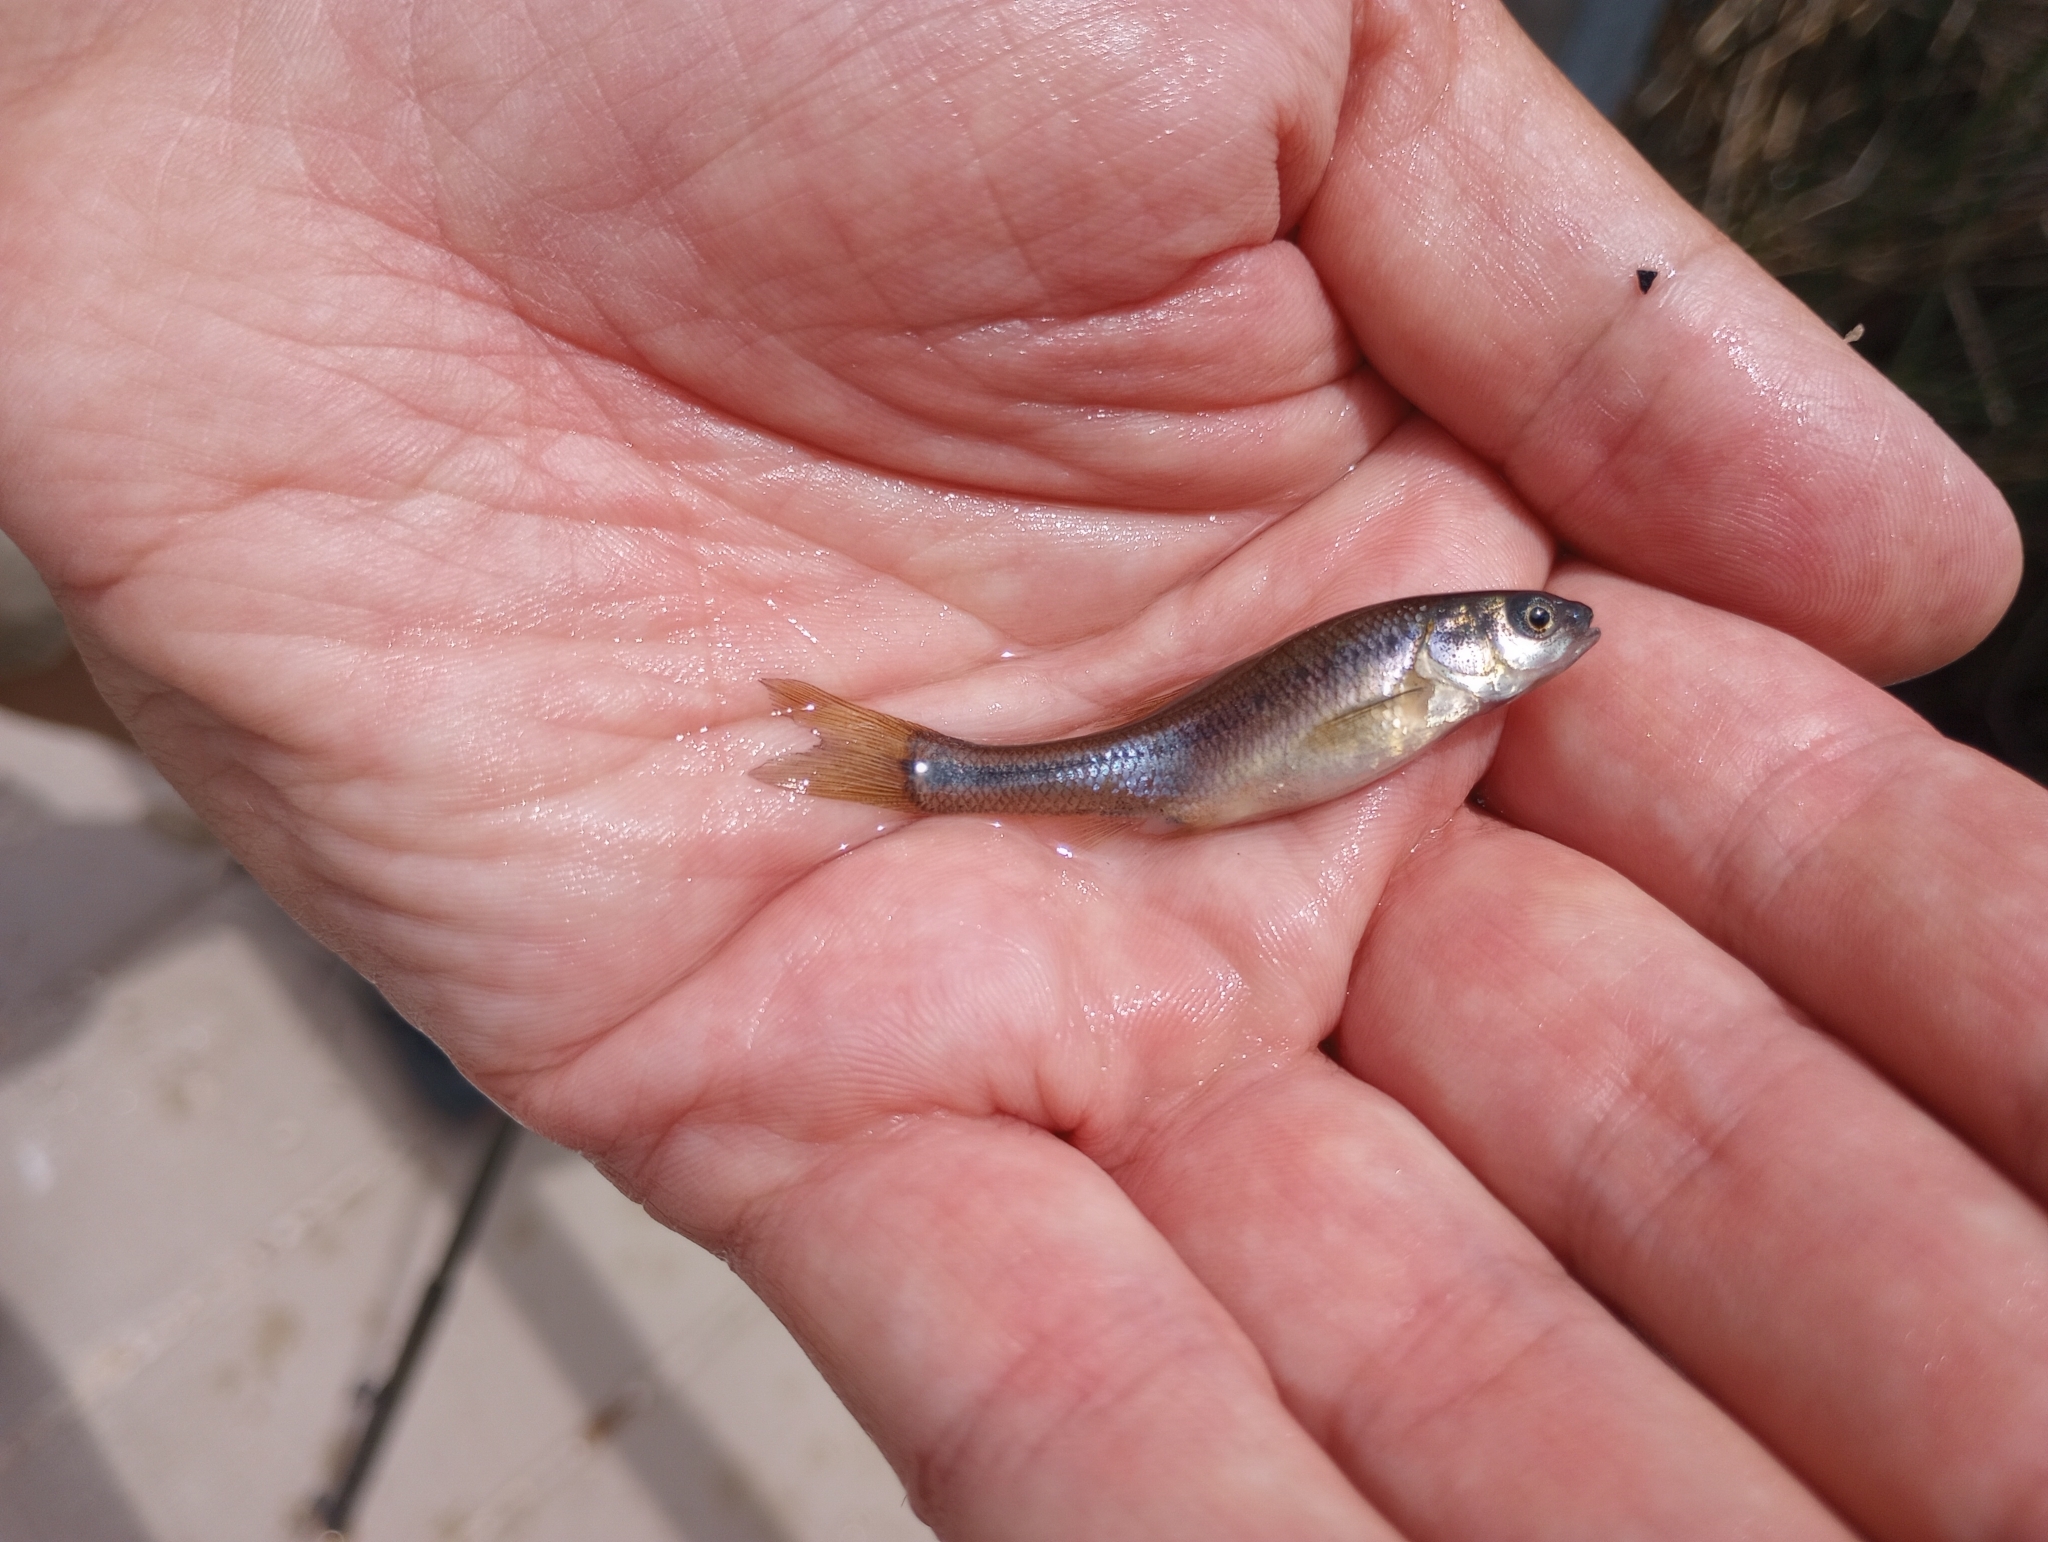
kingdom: Animalia
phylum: Chordata
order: Cypriniformes
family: Cyprinidae
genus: Pimephales
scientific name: Pimephales promelas
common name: Fathead minnow
